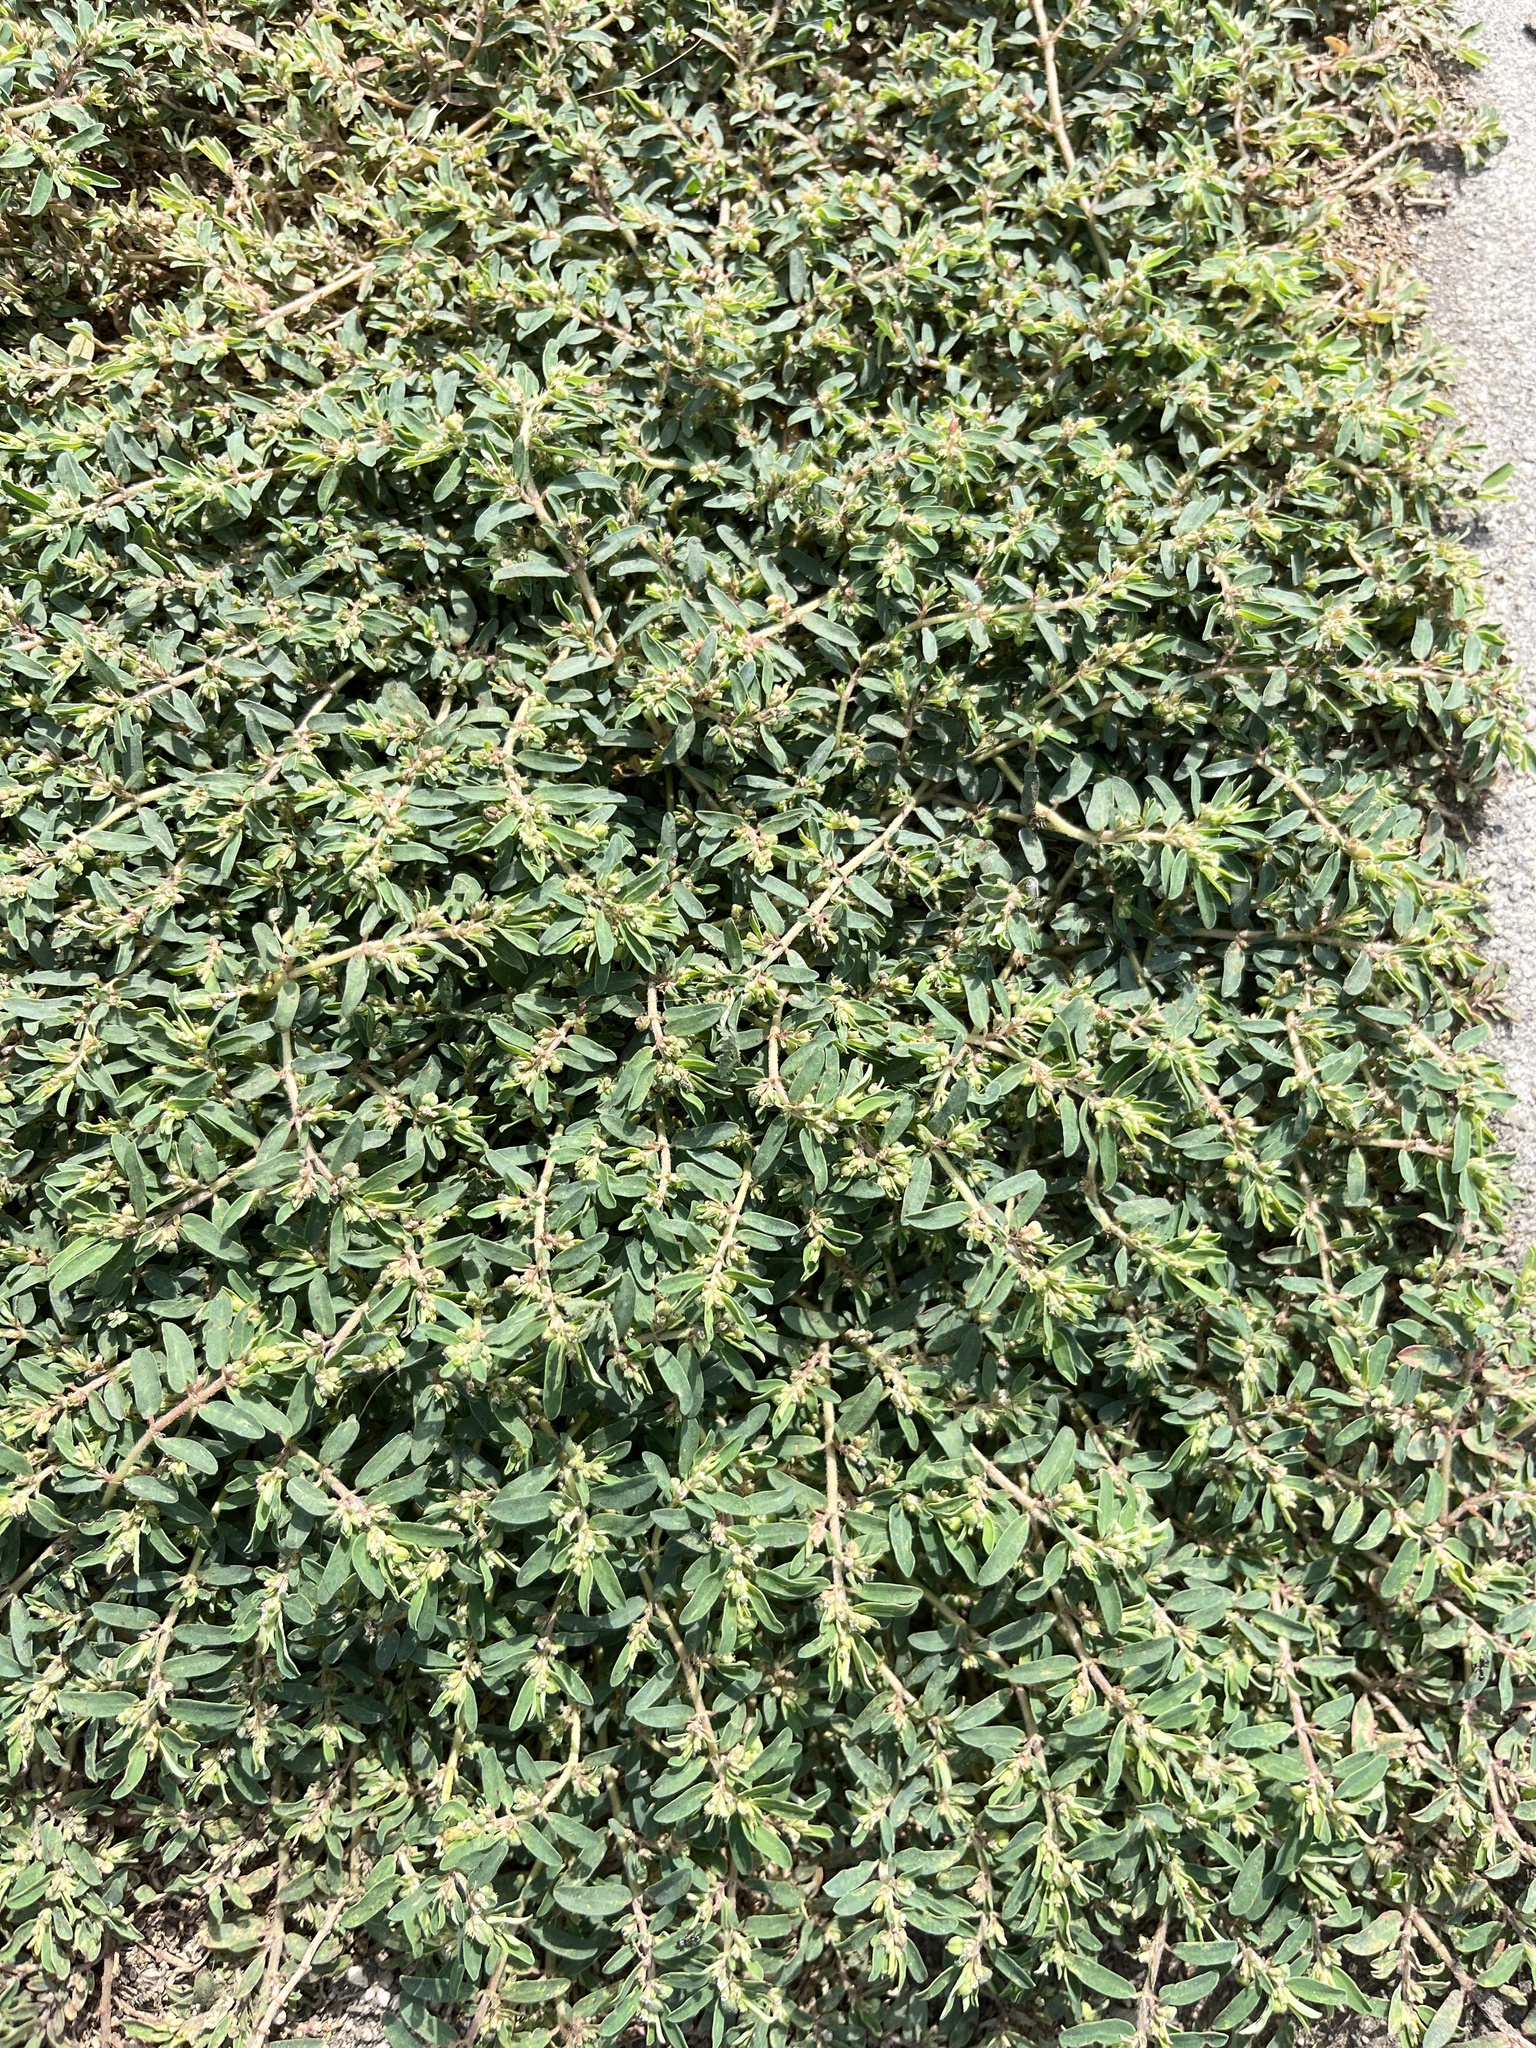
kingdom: Plantae
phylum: Tracheophyta
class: Magnoliopsida
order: Malpighiales
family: Euphorbiaceae
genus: Euphorbia
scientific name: Euphorbia maculata
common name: Spotted spurge
